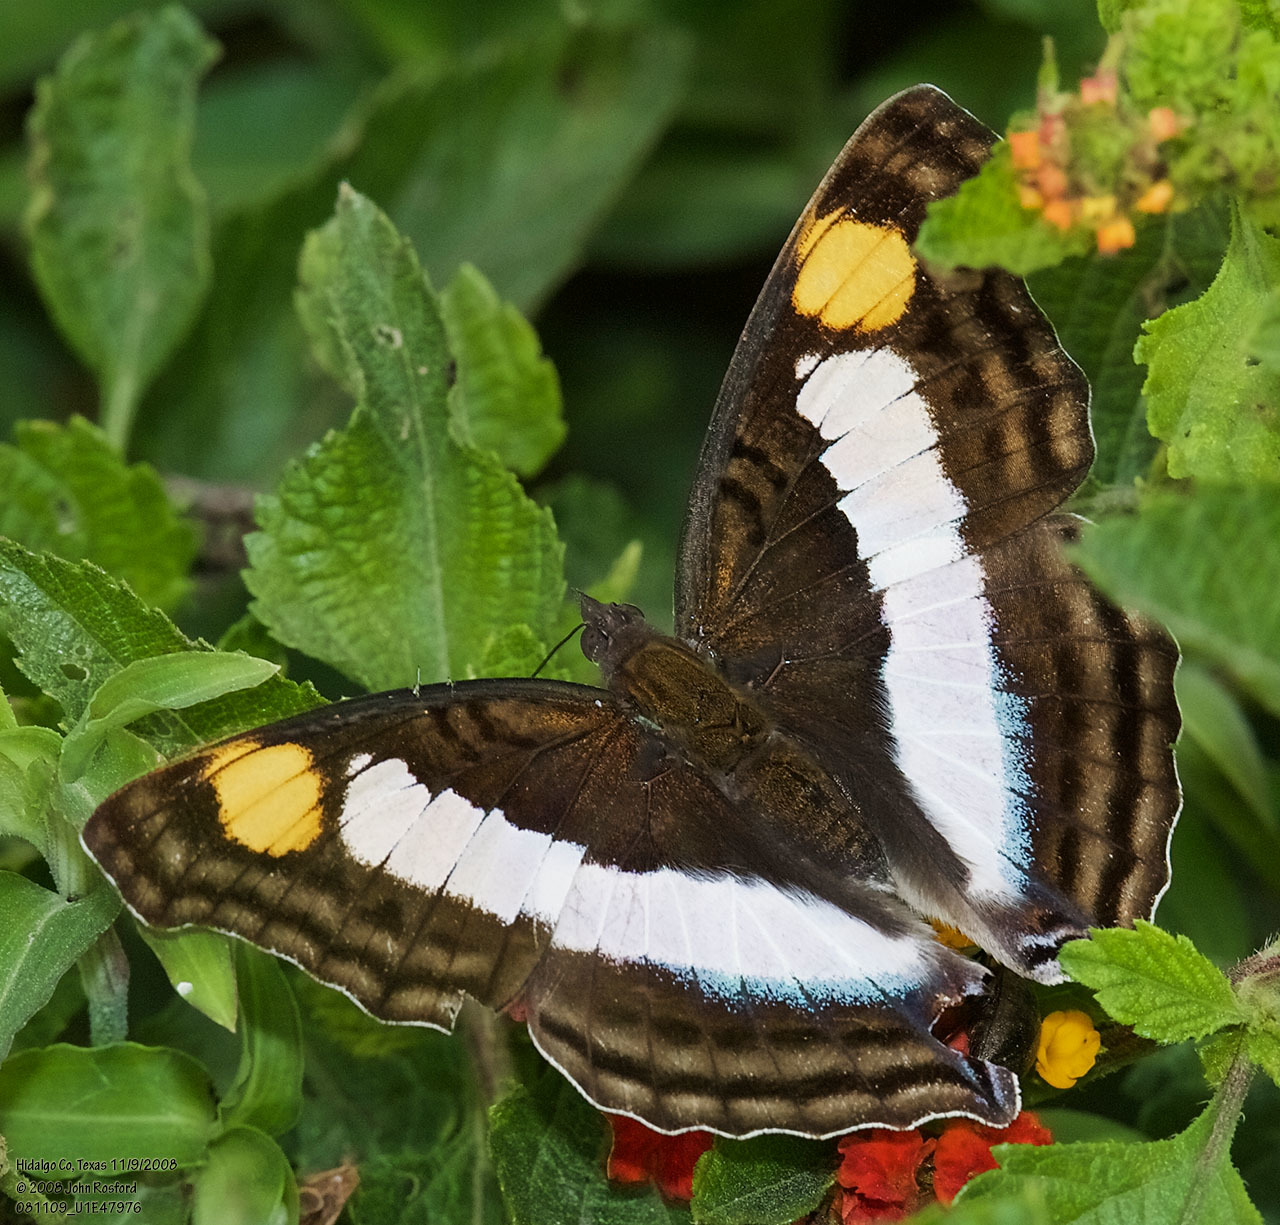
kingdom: Animalia
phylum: Arthropoda
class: Insecta
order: Lepidoptera
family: Nymphalidae
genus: Doxocopa
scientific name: Doxocopa laure
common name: Silver emperor
